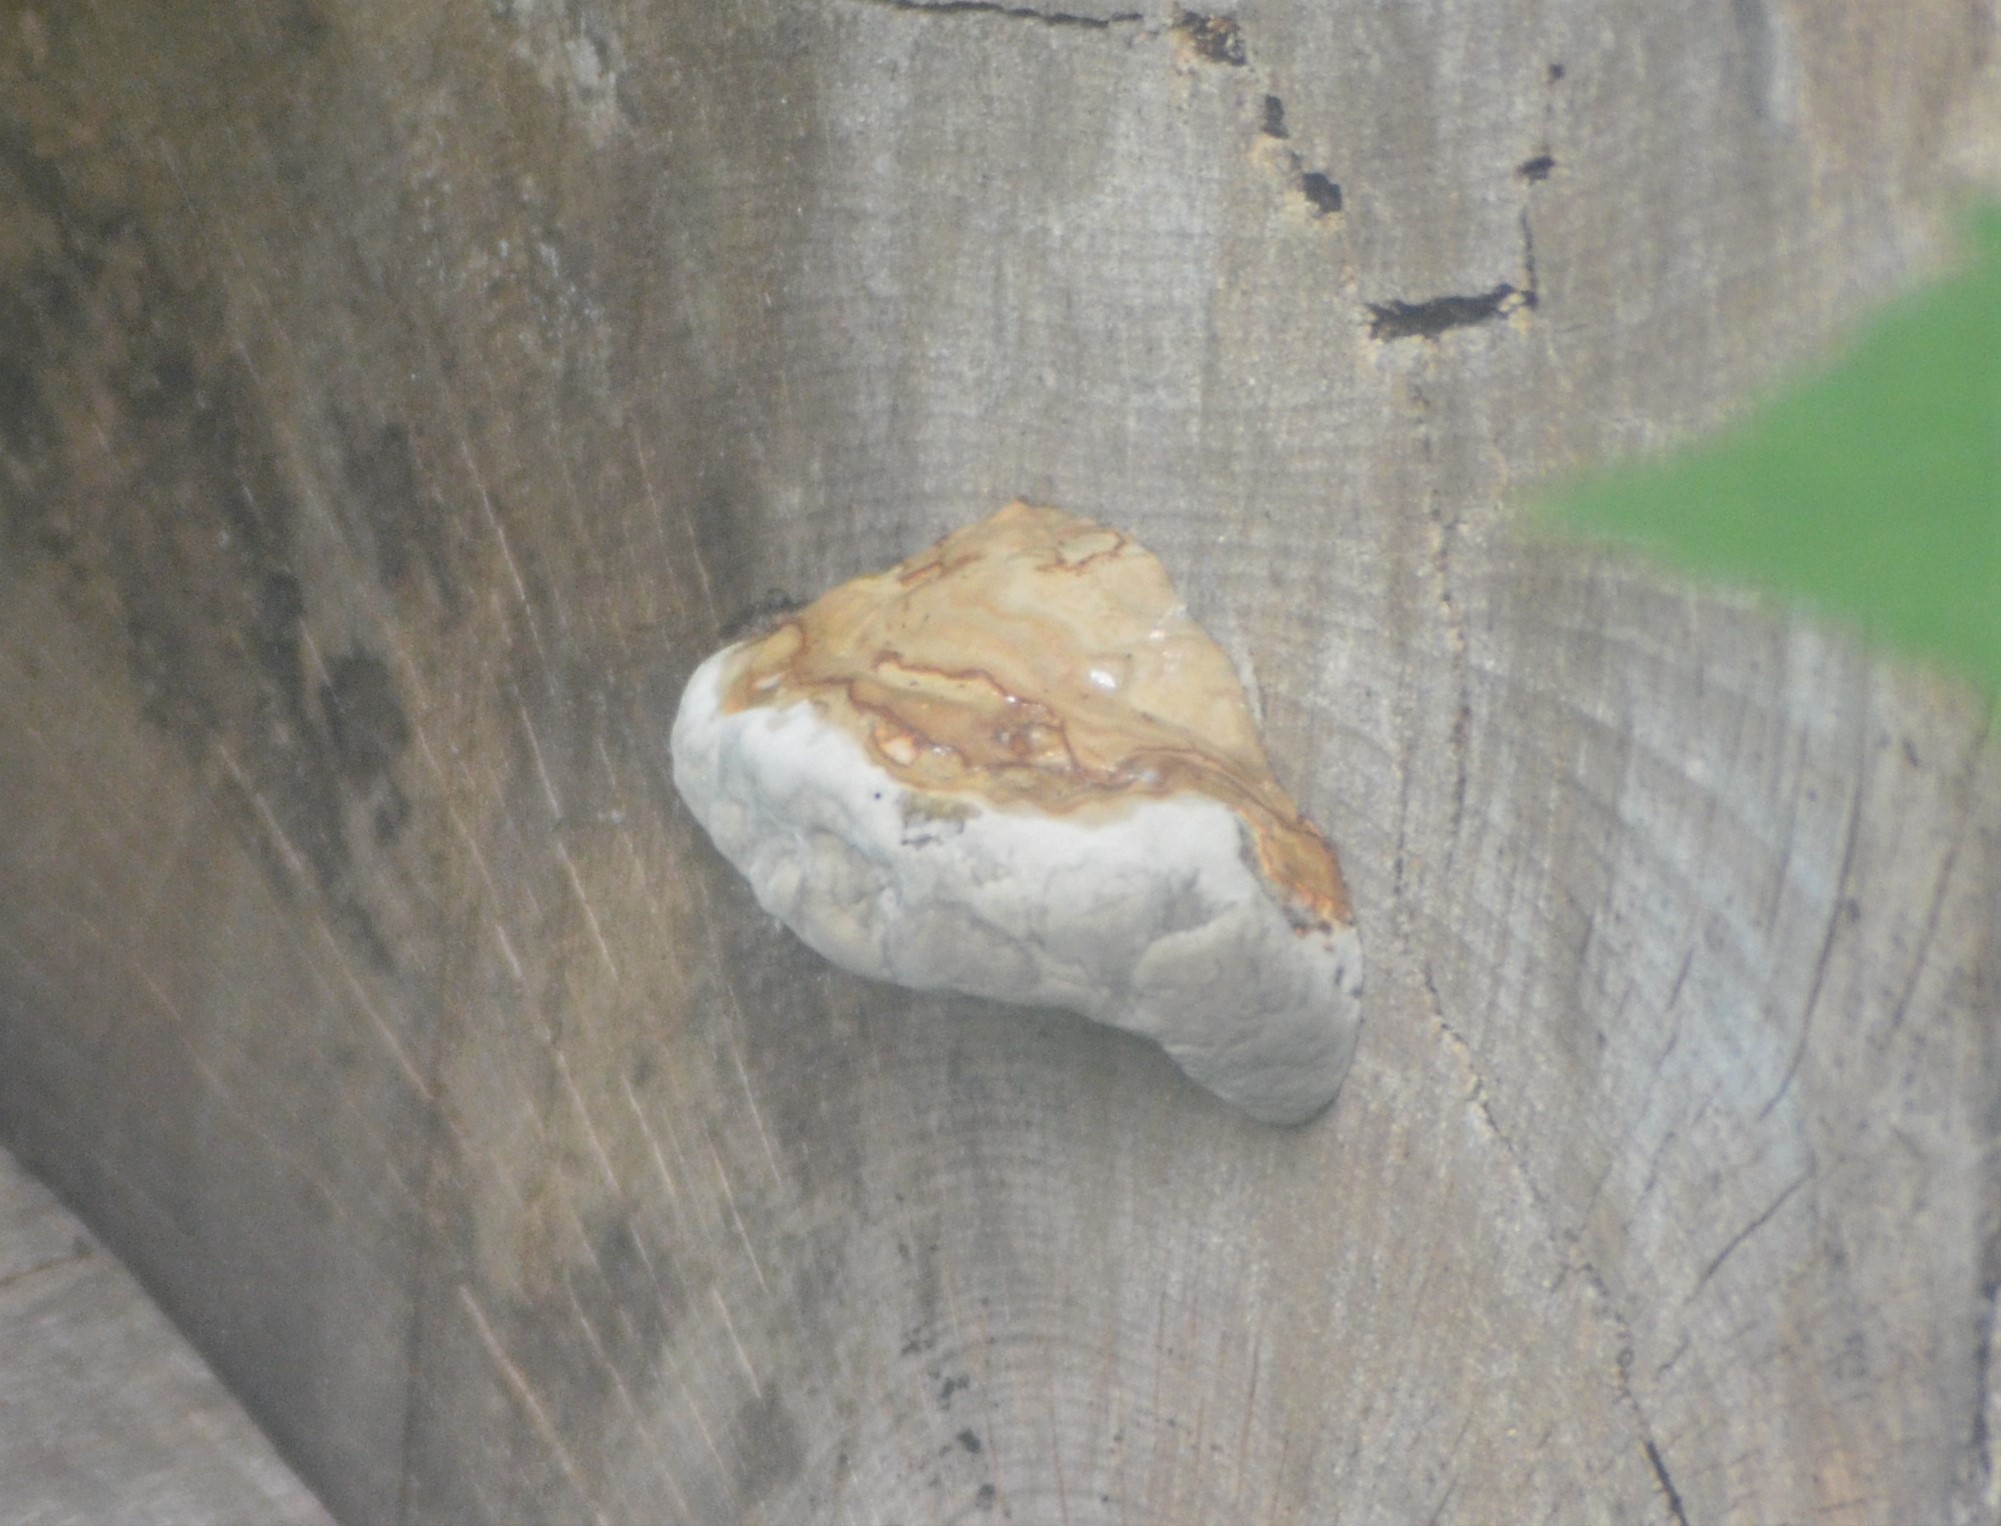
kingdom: Fungi
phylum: Basidiomycota
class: Agaricomycetes
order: Polyporales
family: Polyporaceae
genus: Fomes
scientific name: Fomes fomentarius
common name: Hoof fungus
